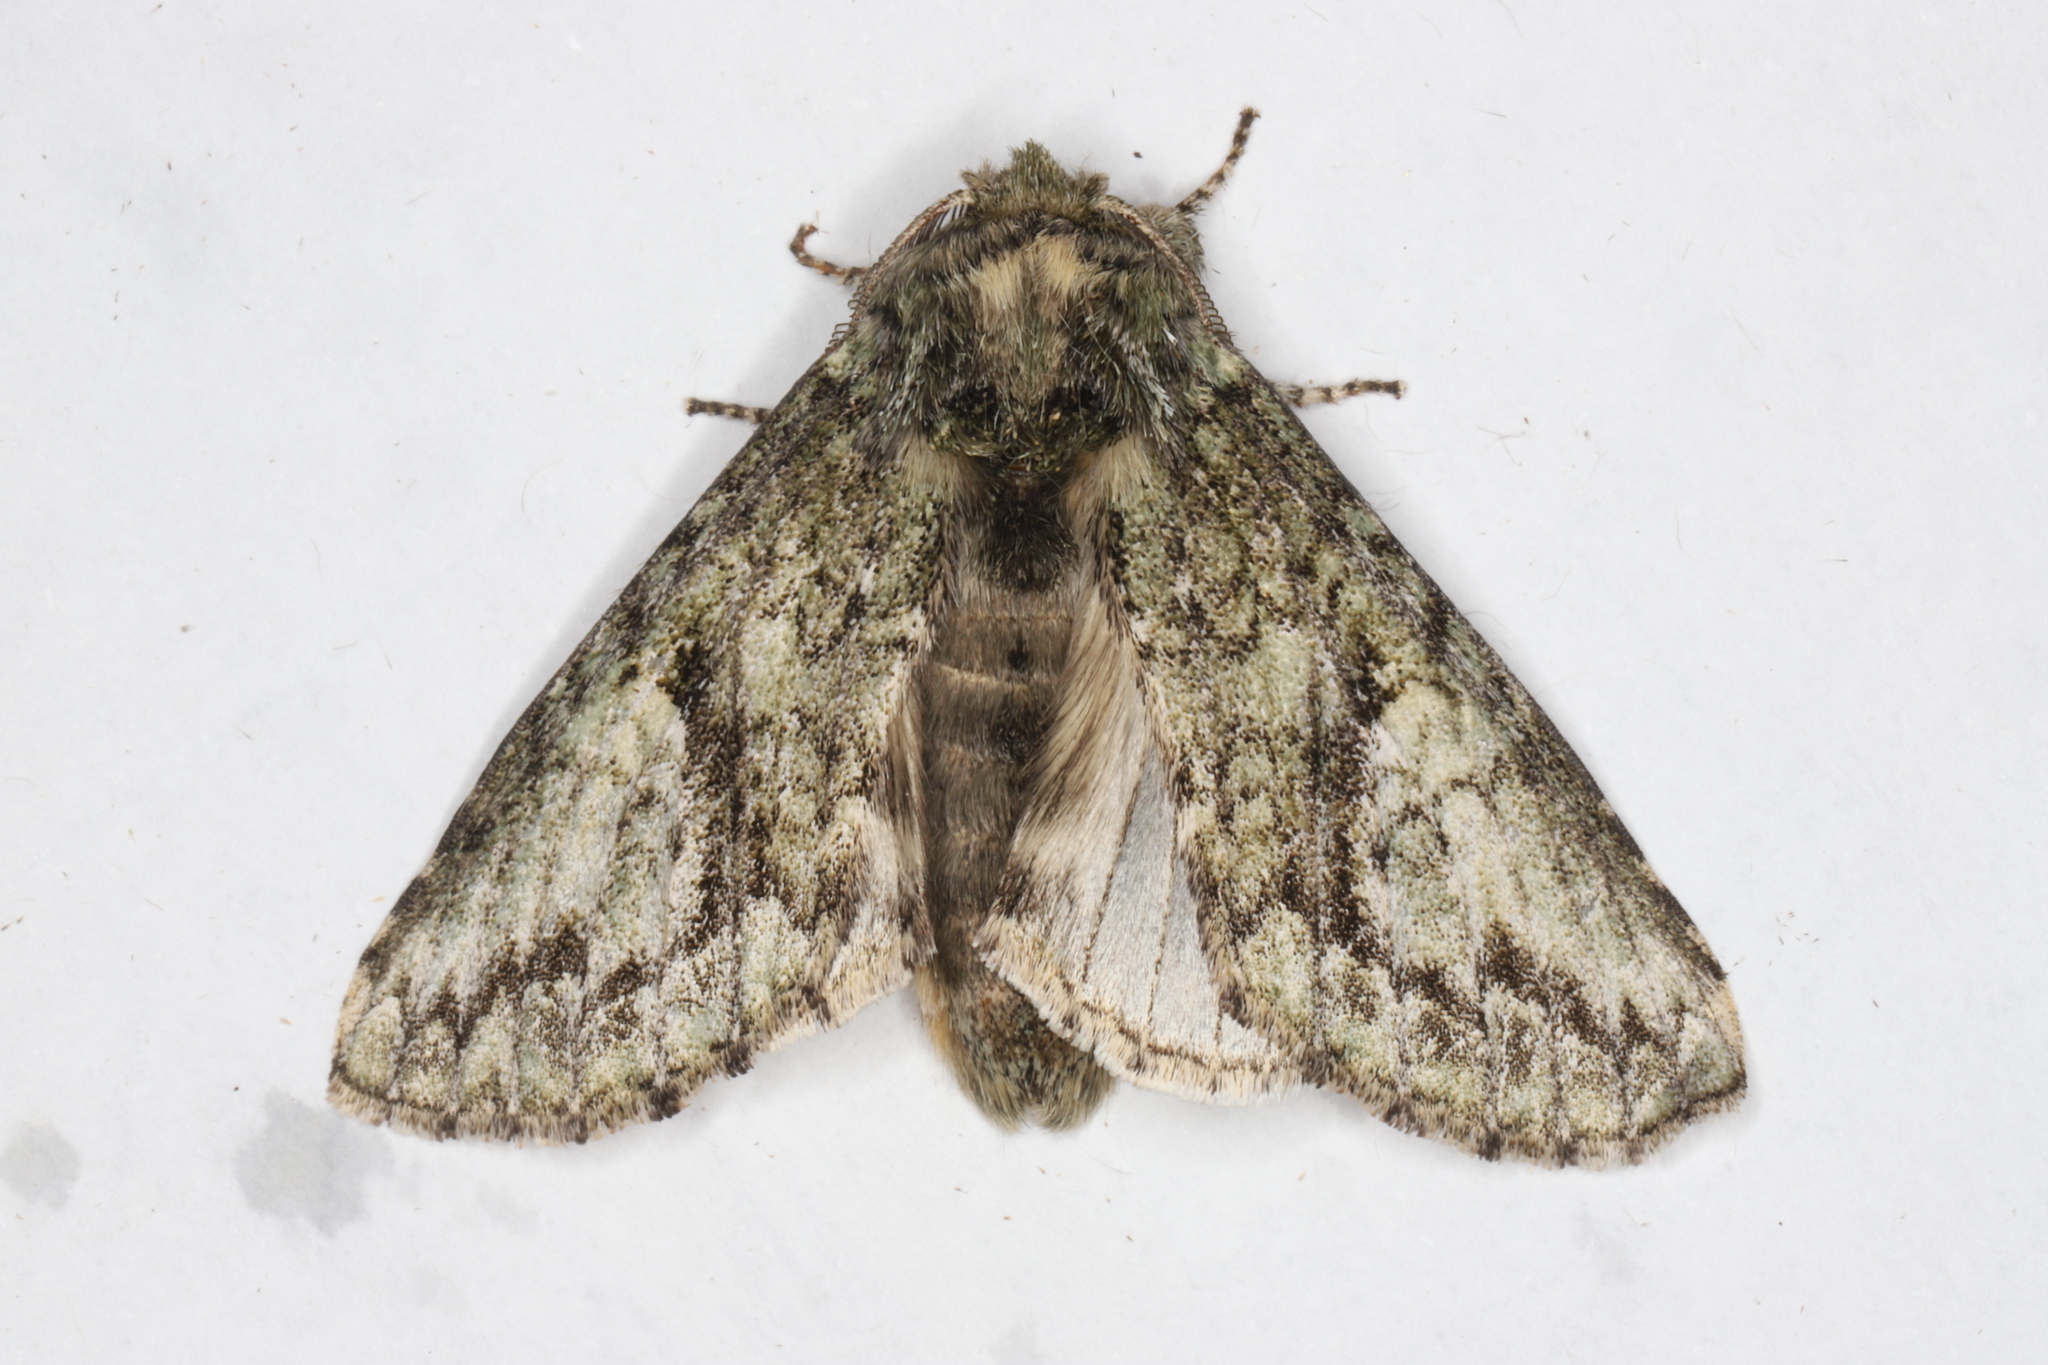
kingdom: Animalia
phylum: Arthropoda
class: Insecta
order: Lepidoptera
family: Notodontidae
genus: Heterocampa
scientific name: Heterocampa
